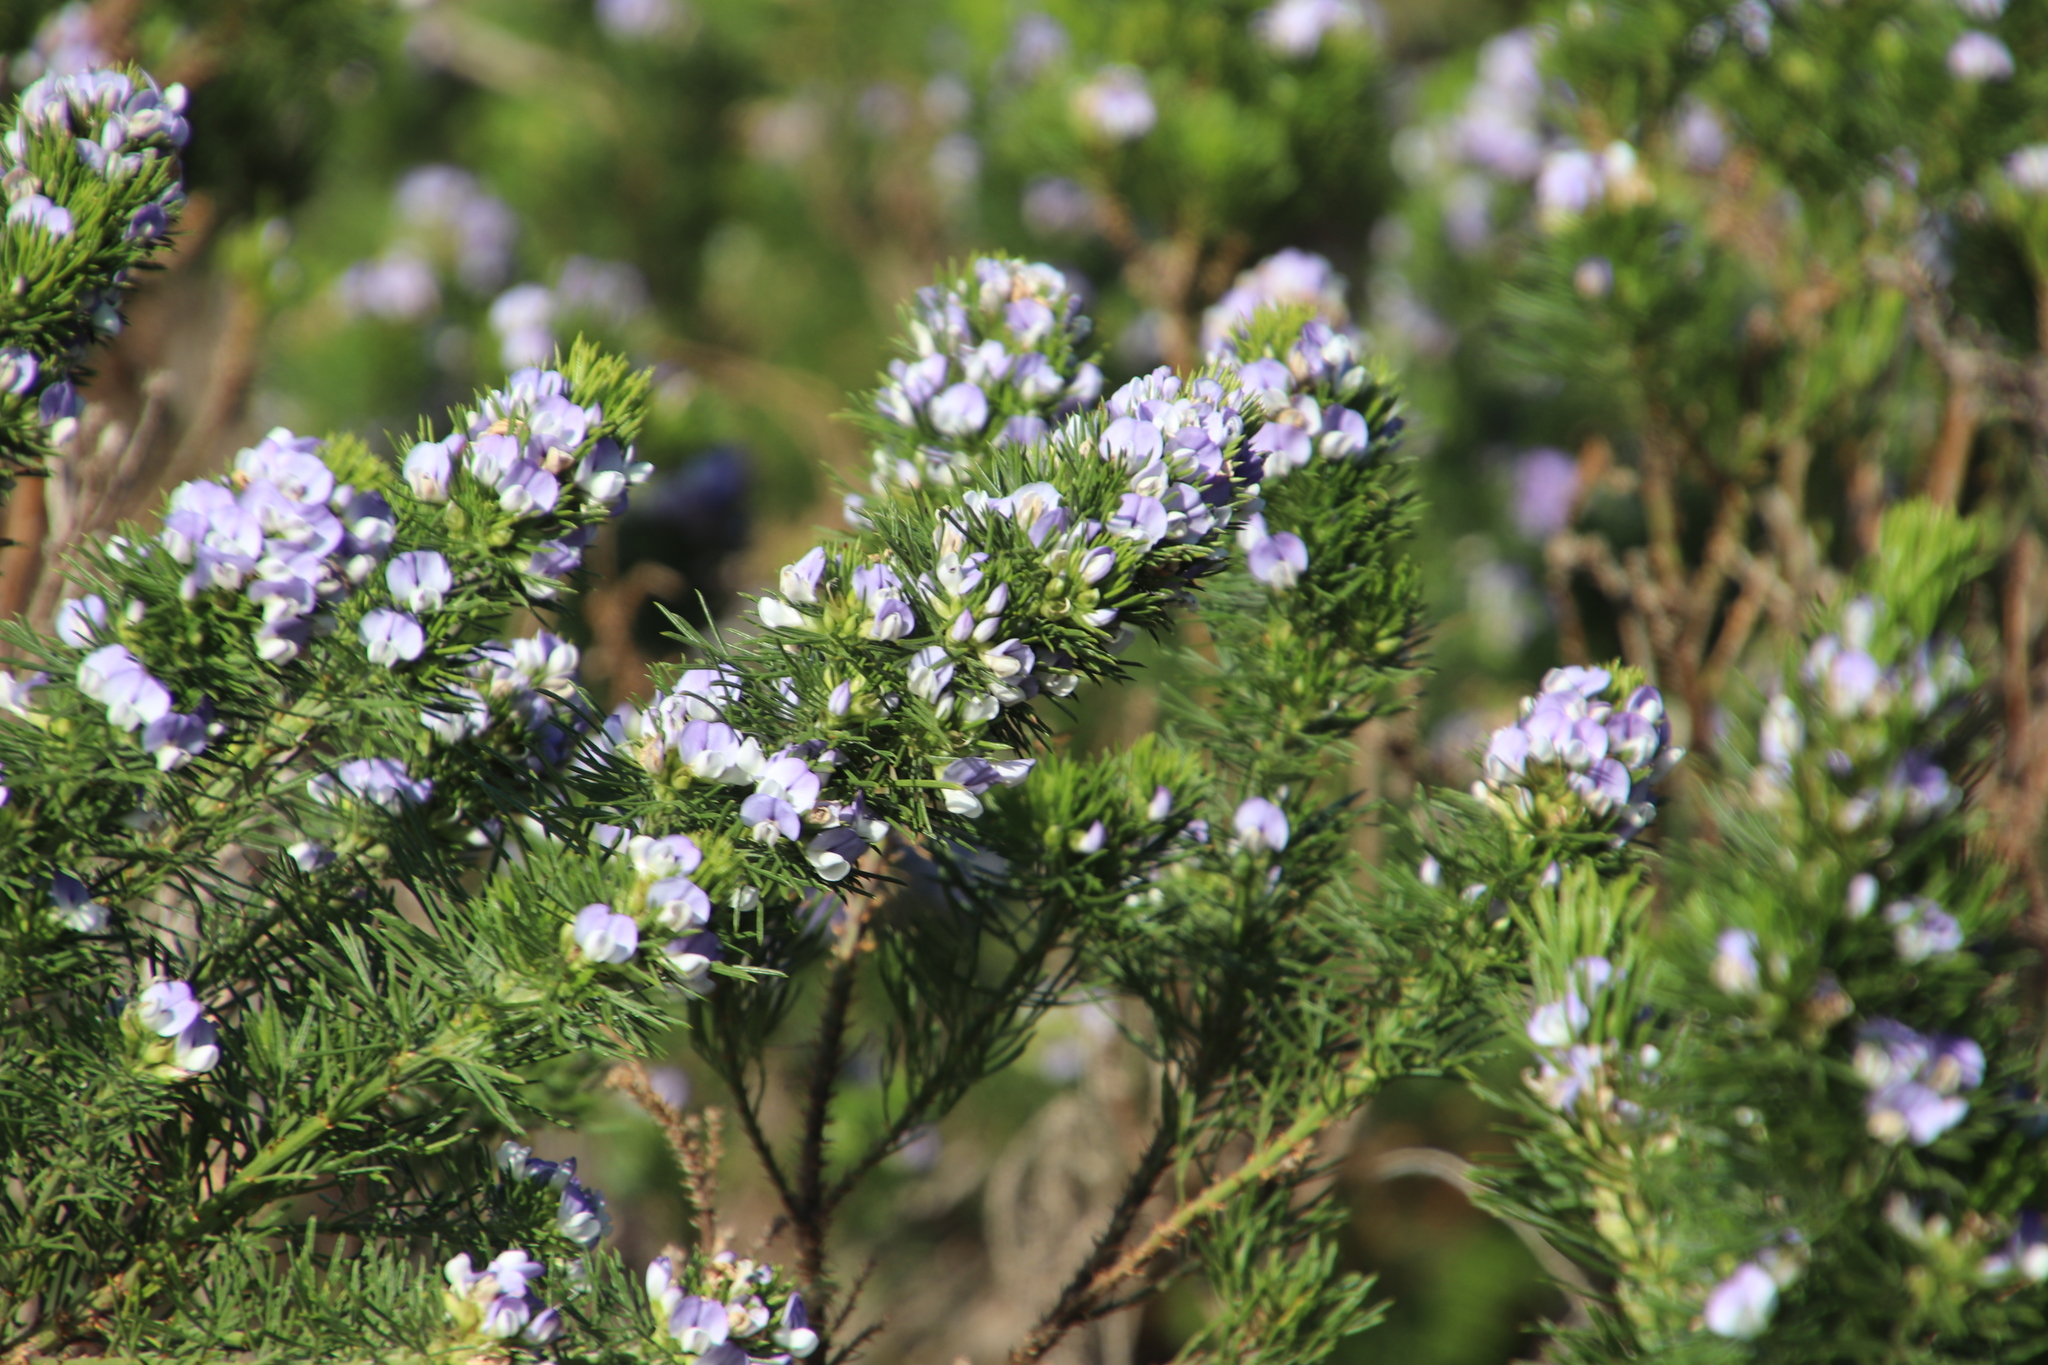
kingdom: Plantae
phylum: Tracheophyta
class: Magnoliopsida
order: Fabales
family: Fabaceae
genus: Psoralea
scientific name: Psoralea pinnata
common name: African scurfpea
